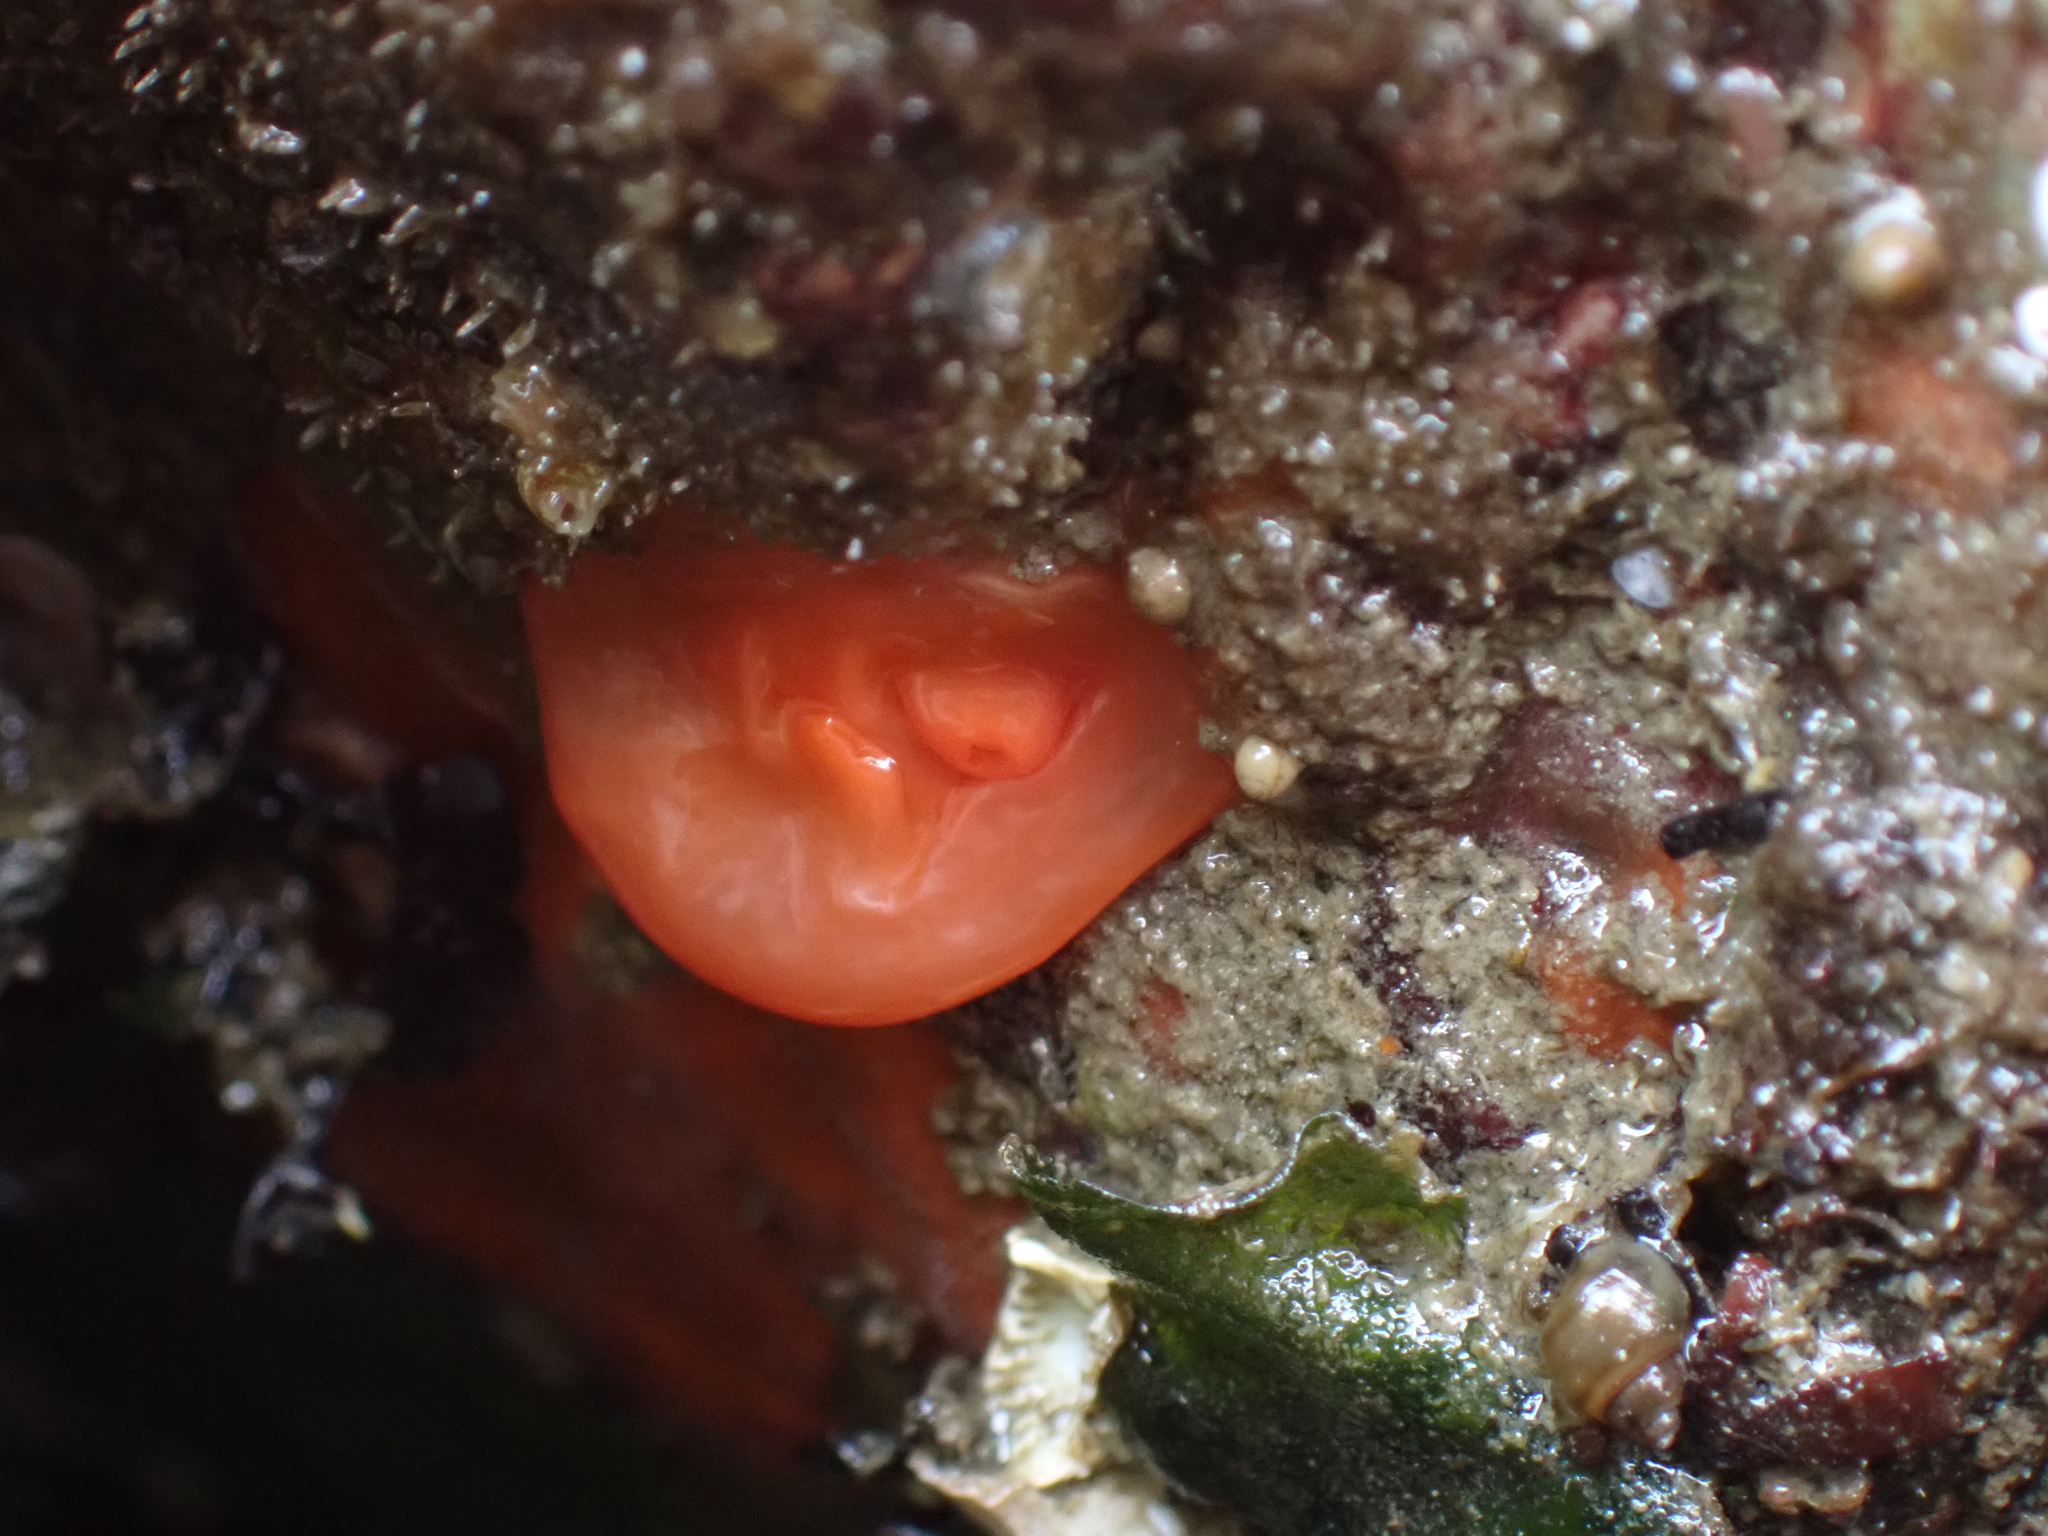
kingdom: Animalia
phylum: Chordata
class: Ascidiacea
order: Stolidobranchia
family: Styelidae
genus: Cnemidocarpa
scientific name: Cnemidocarpa finmarkiensis
